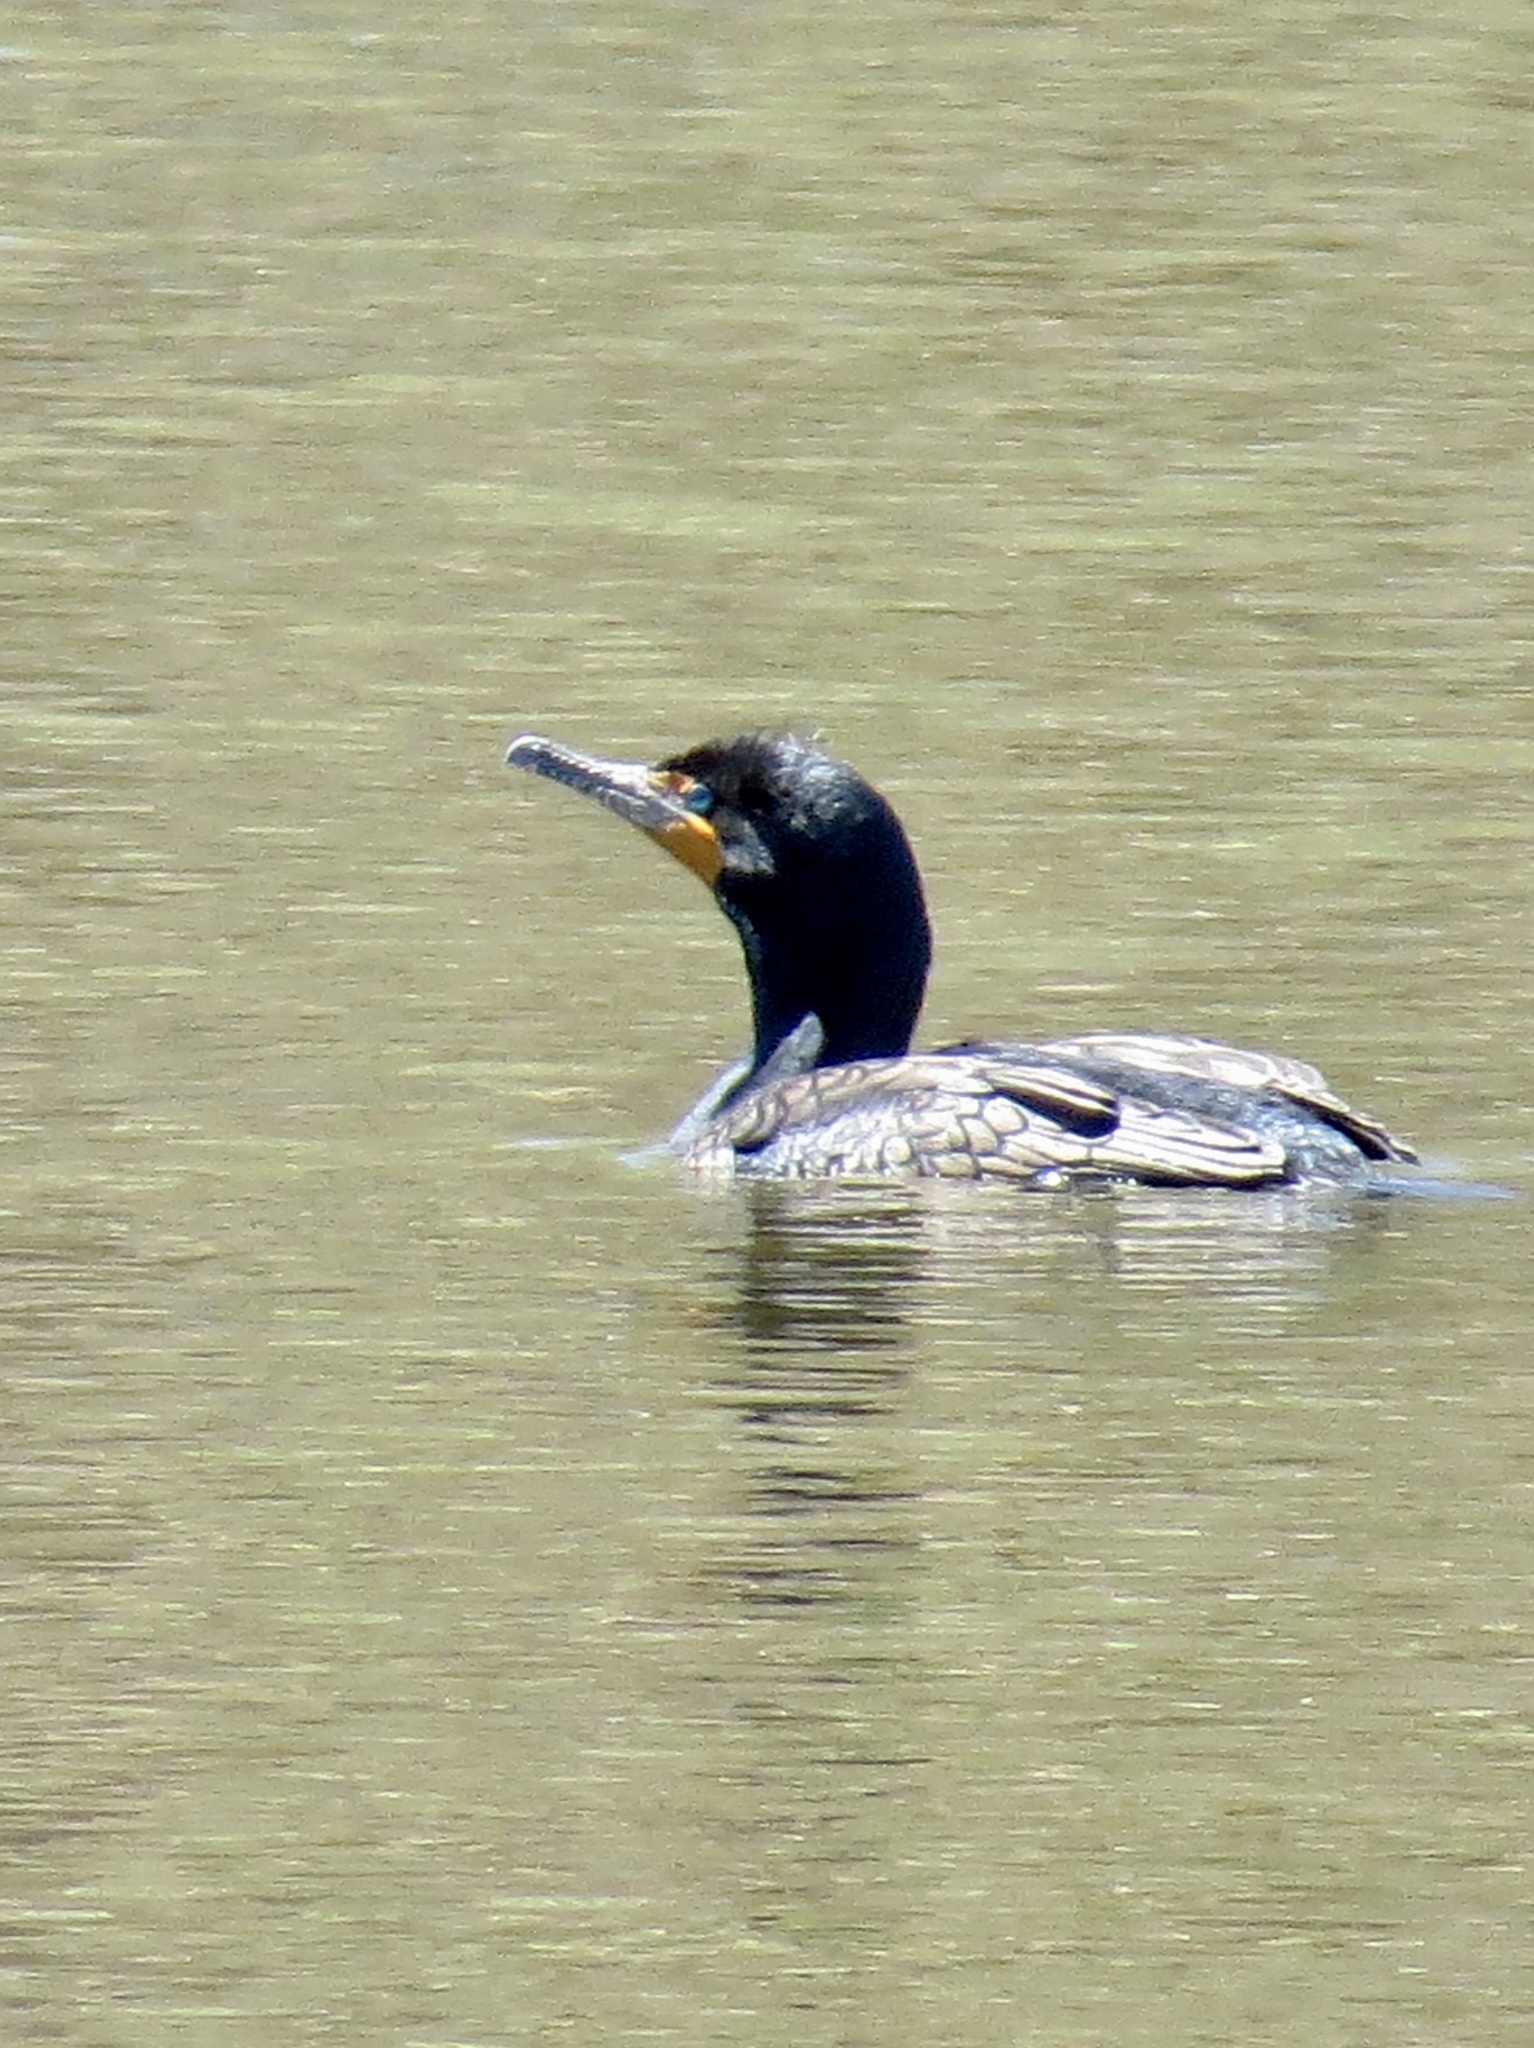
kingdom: Animalia
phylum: Chordata
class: Aves
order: Suliformes
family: Phalacrocoracidae
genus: Phalacrocorax
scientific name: Phalacrocorax auritus
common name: Double-crested cormorant
